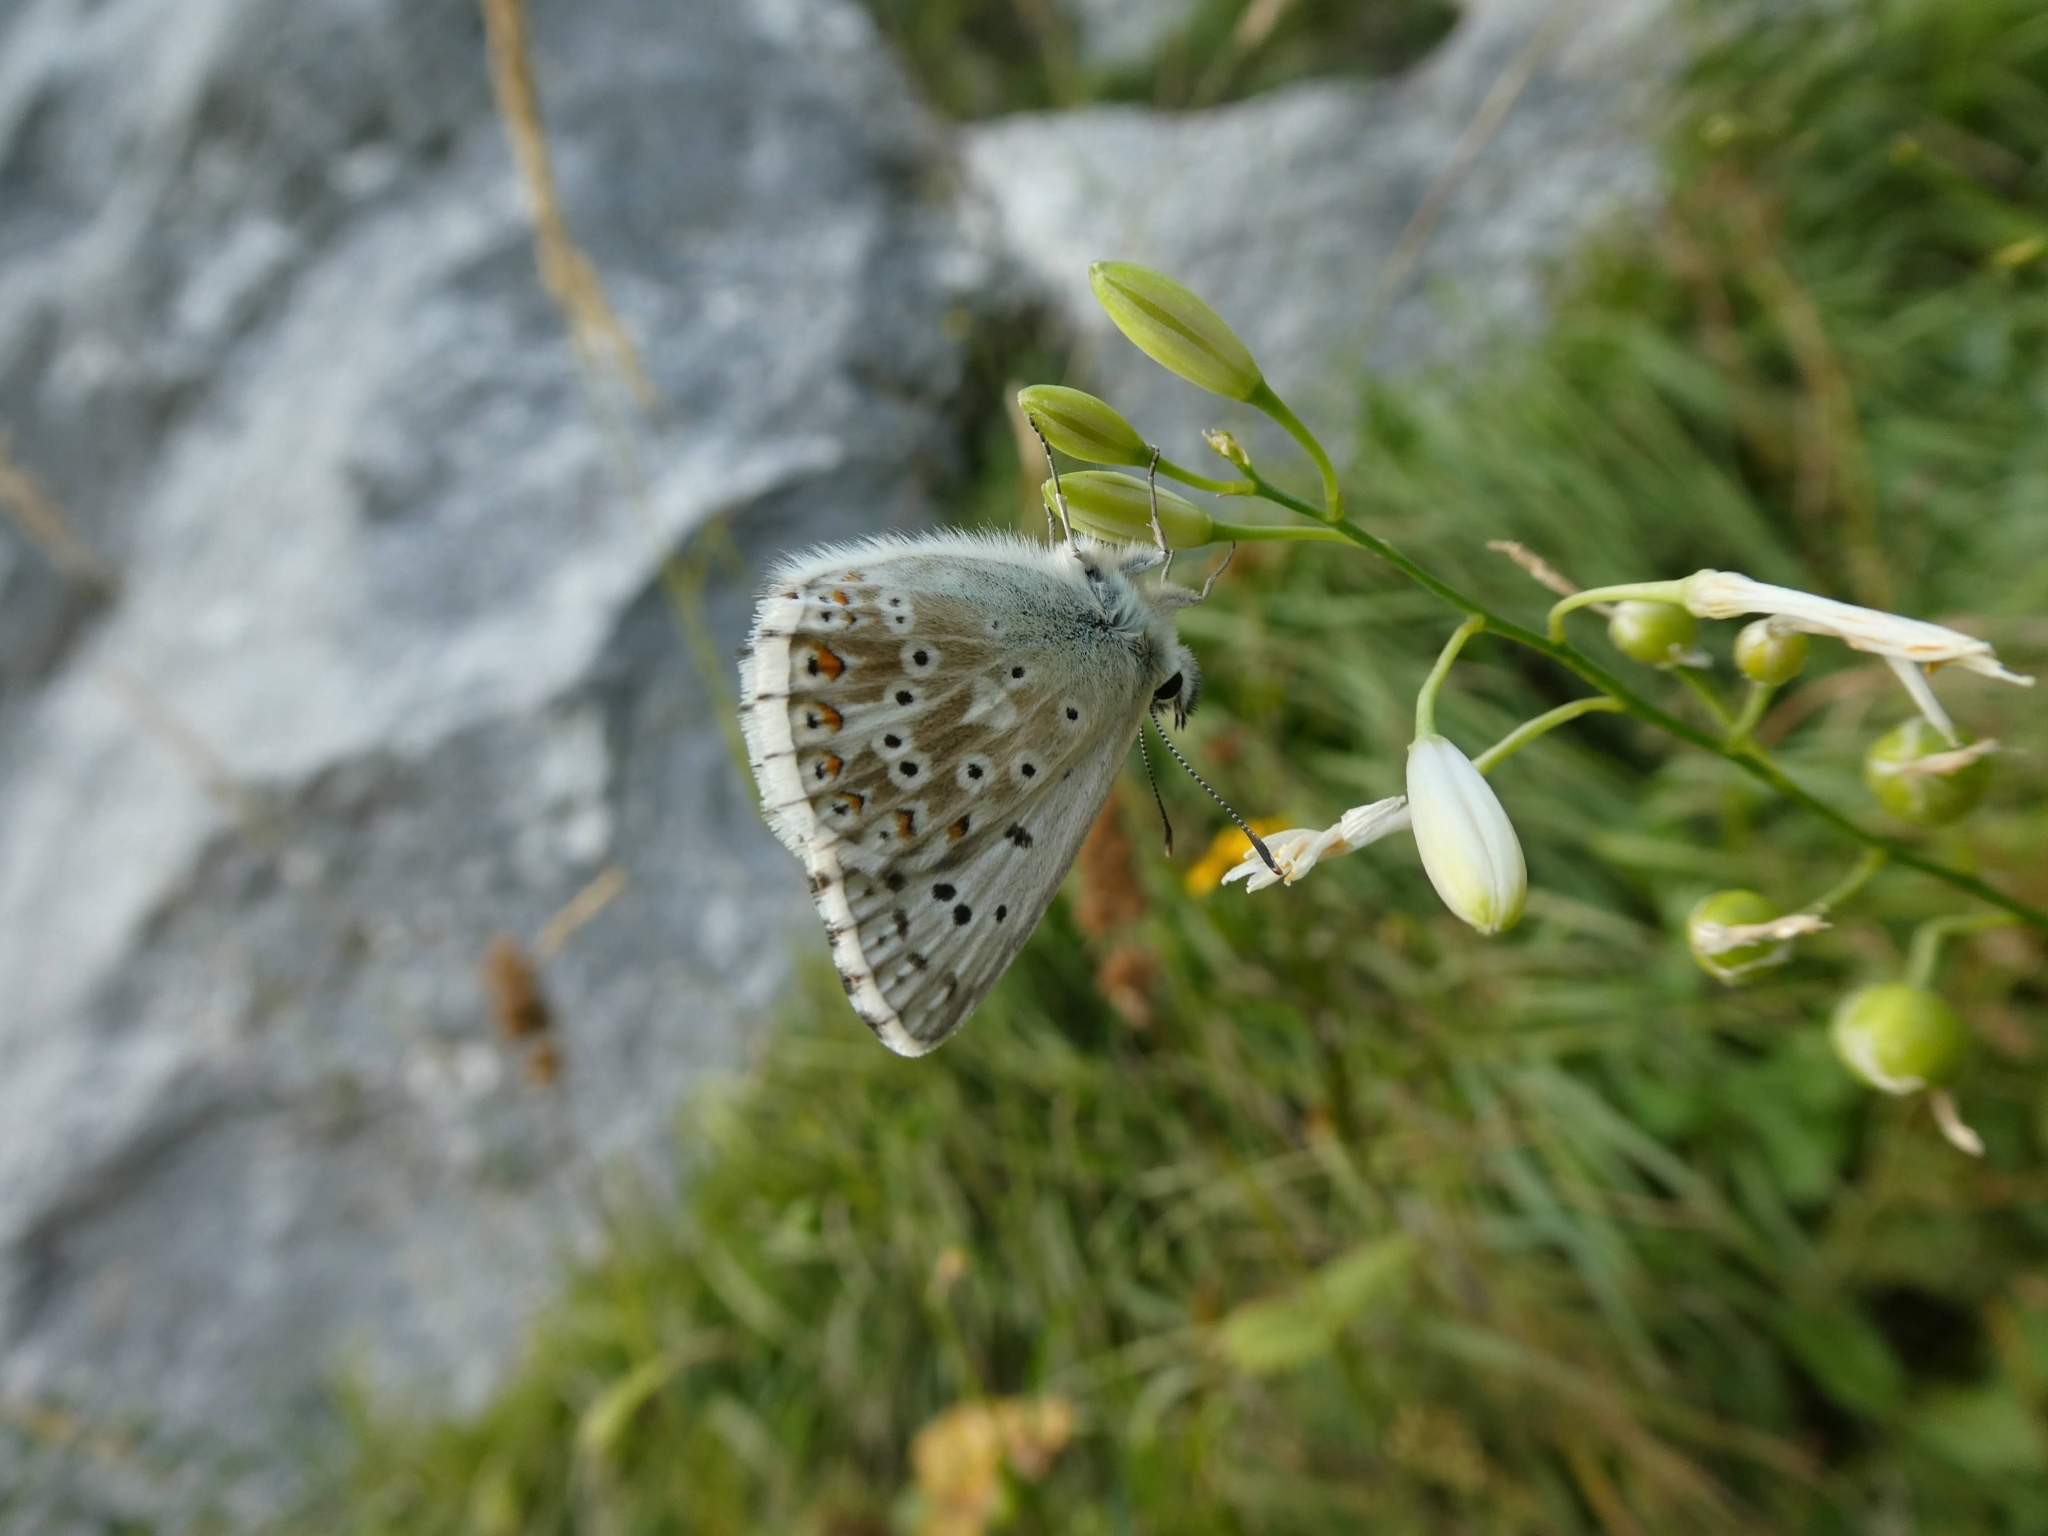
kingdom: Animalia
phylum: Arthropoda
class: Insecta
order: Lepidoptera
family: Lycaenidae
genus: Lysandra
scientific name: Lysandra coridon
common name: Chalkhill blue
